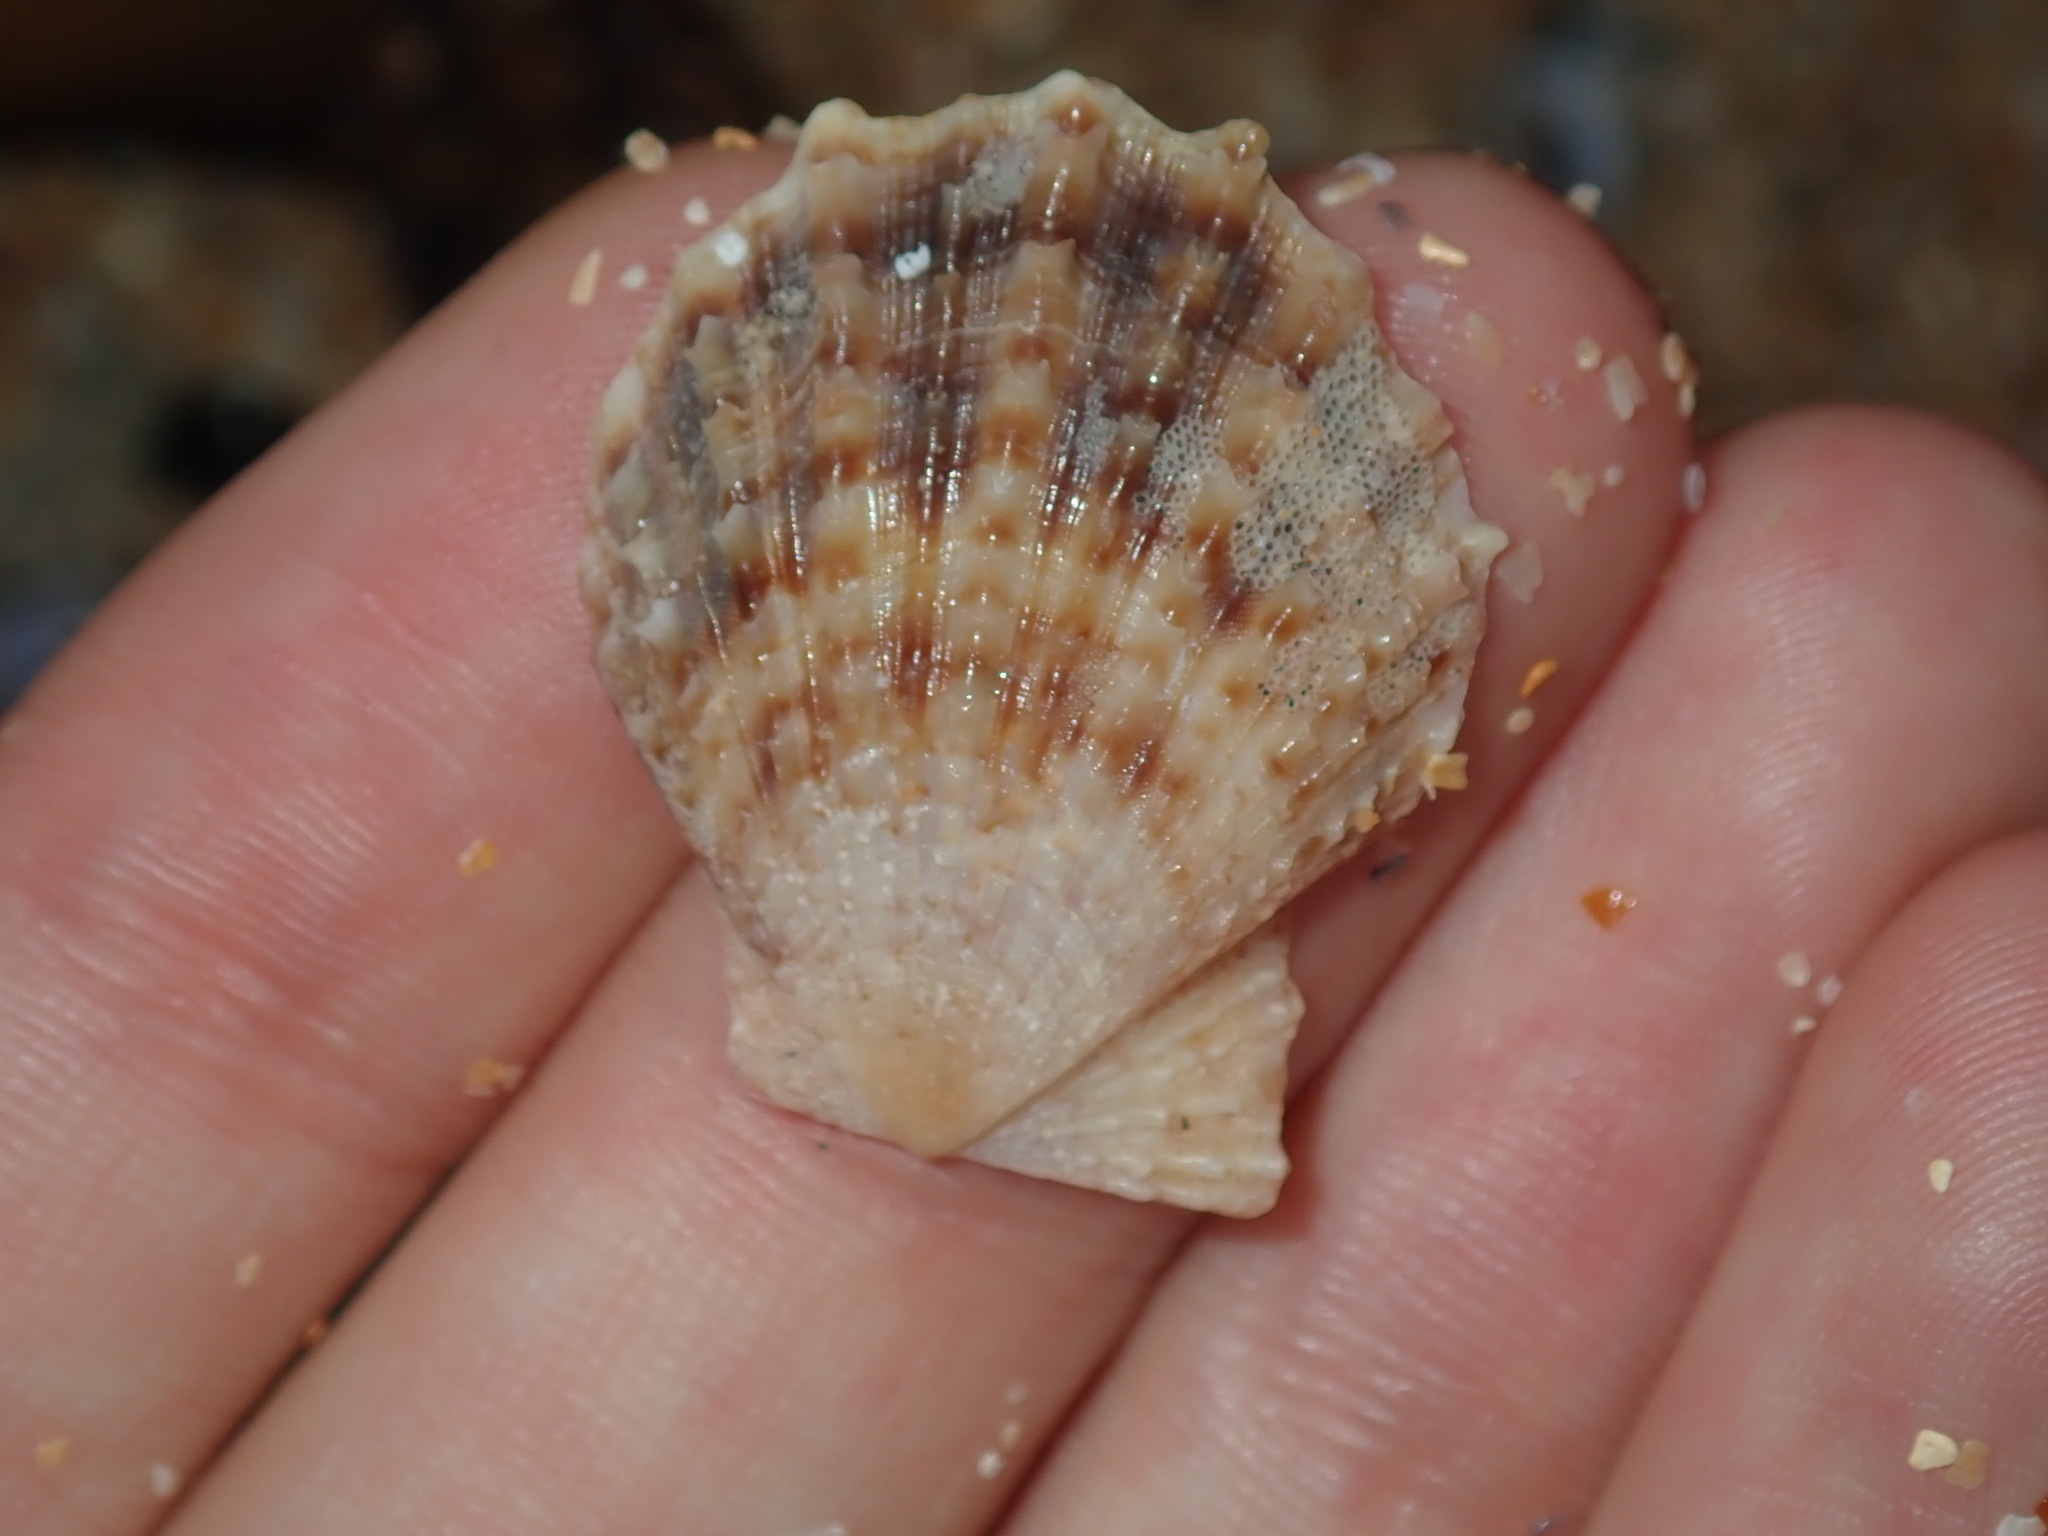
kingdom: Animalia
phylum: Mollusca
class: Bivalvia
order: Pectinida
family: Pectinidae
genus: Scaeochlamys
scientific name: Scaeochlamys livida
